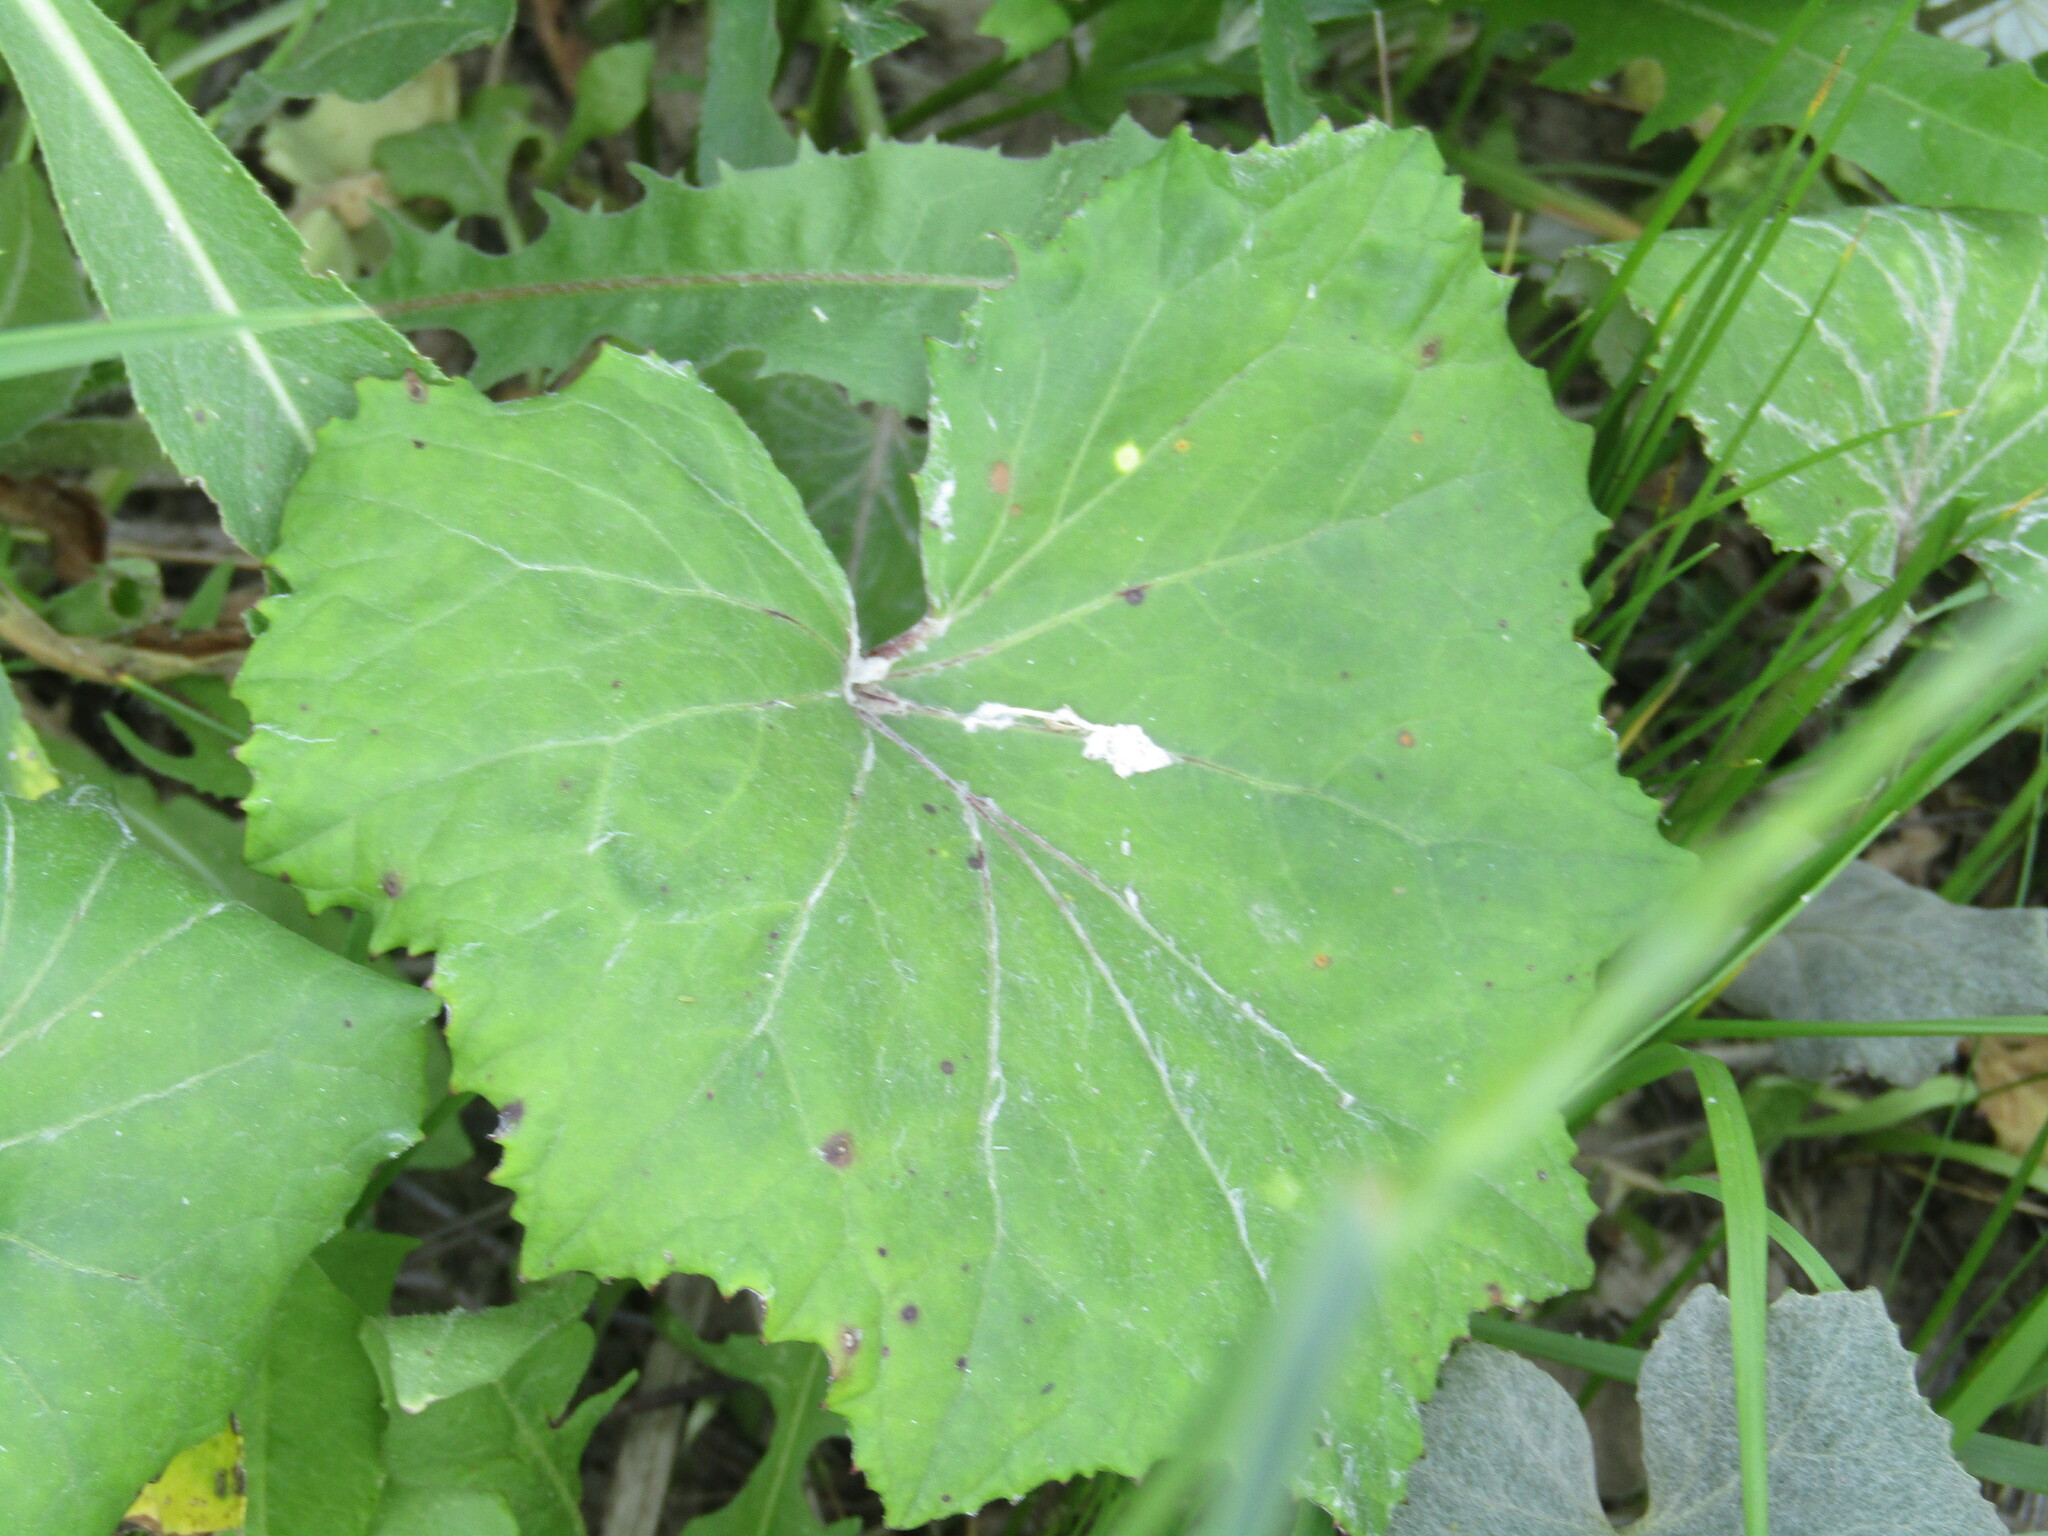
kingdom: Plantae
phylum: Tracheophyta
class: Magnoliopsida
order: Asterales
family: Asteraceae
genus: Tussilago
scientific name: Tussilago farfara
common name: Coltsfoot
